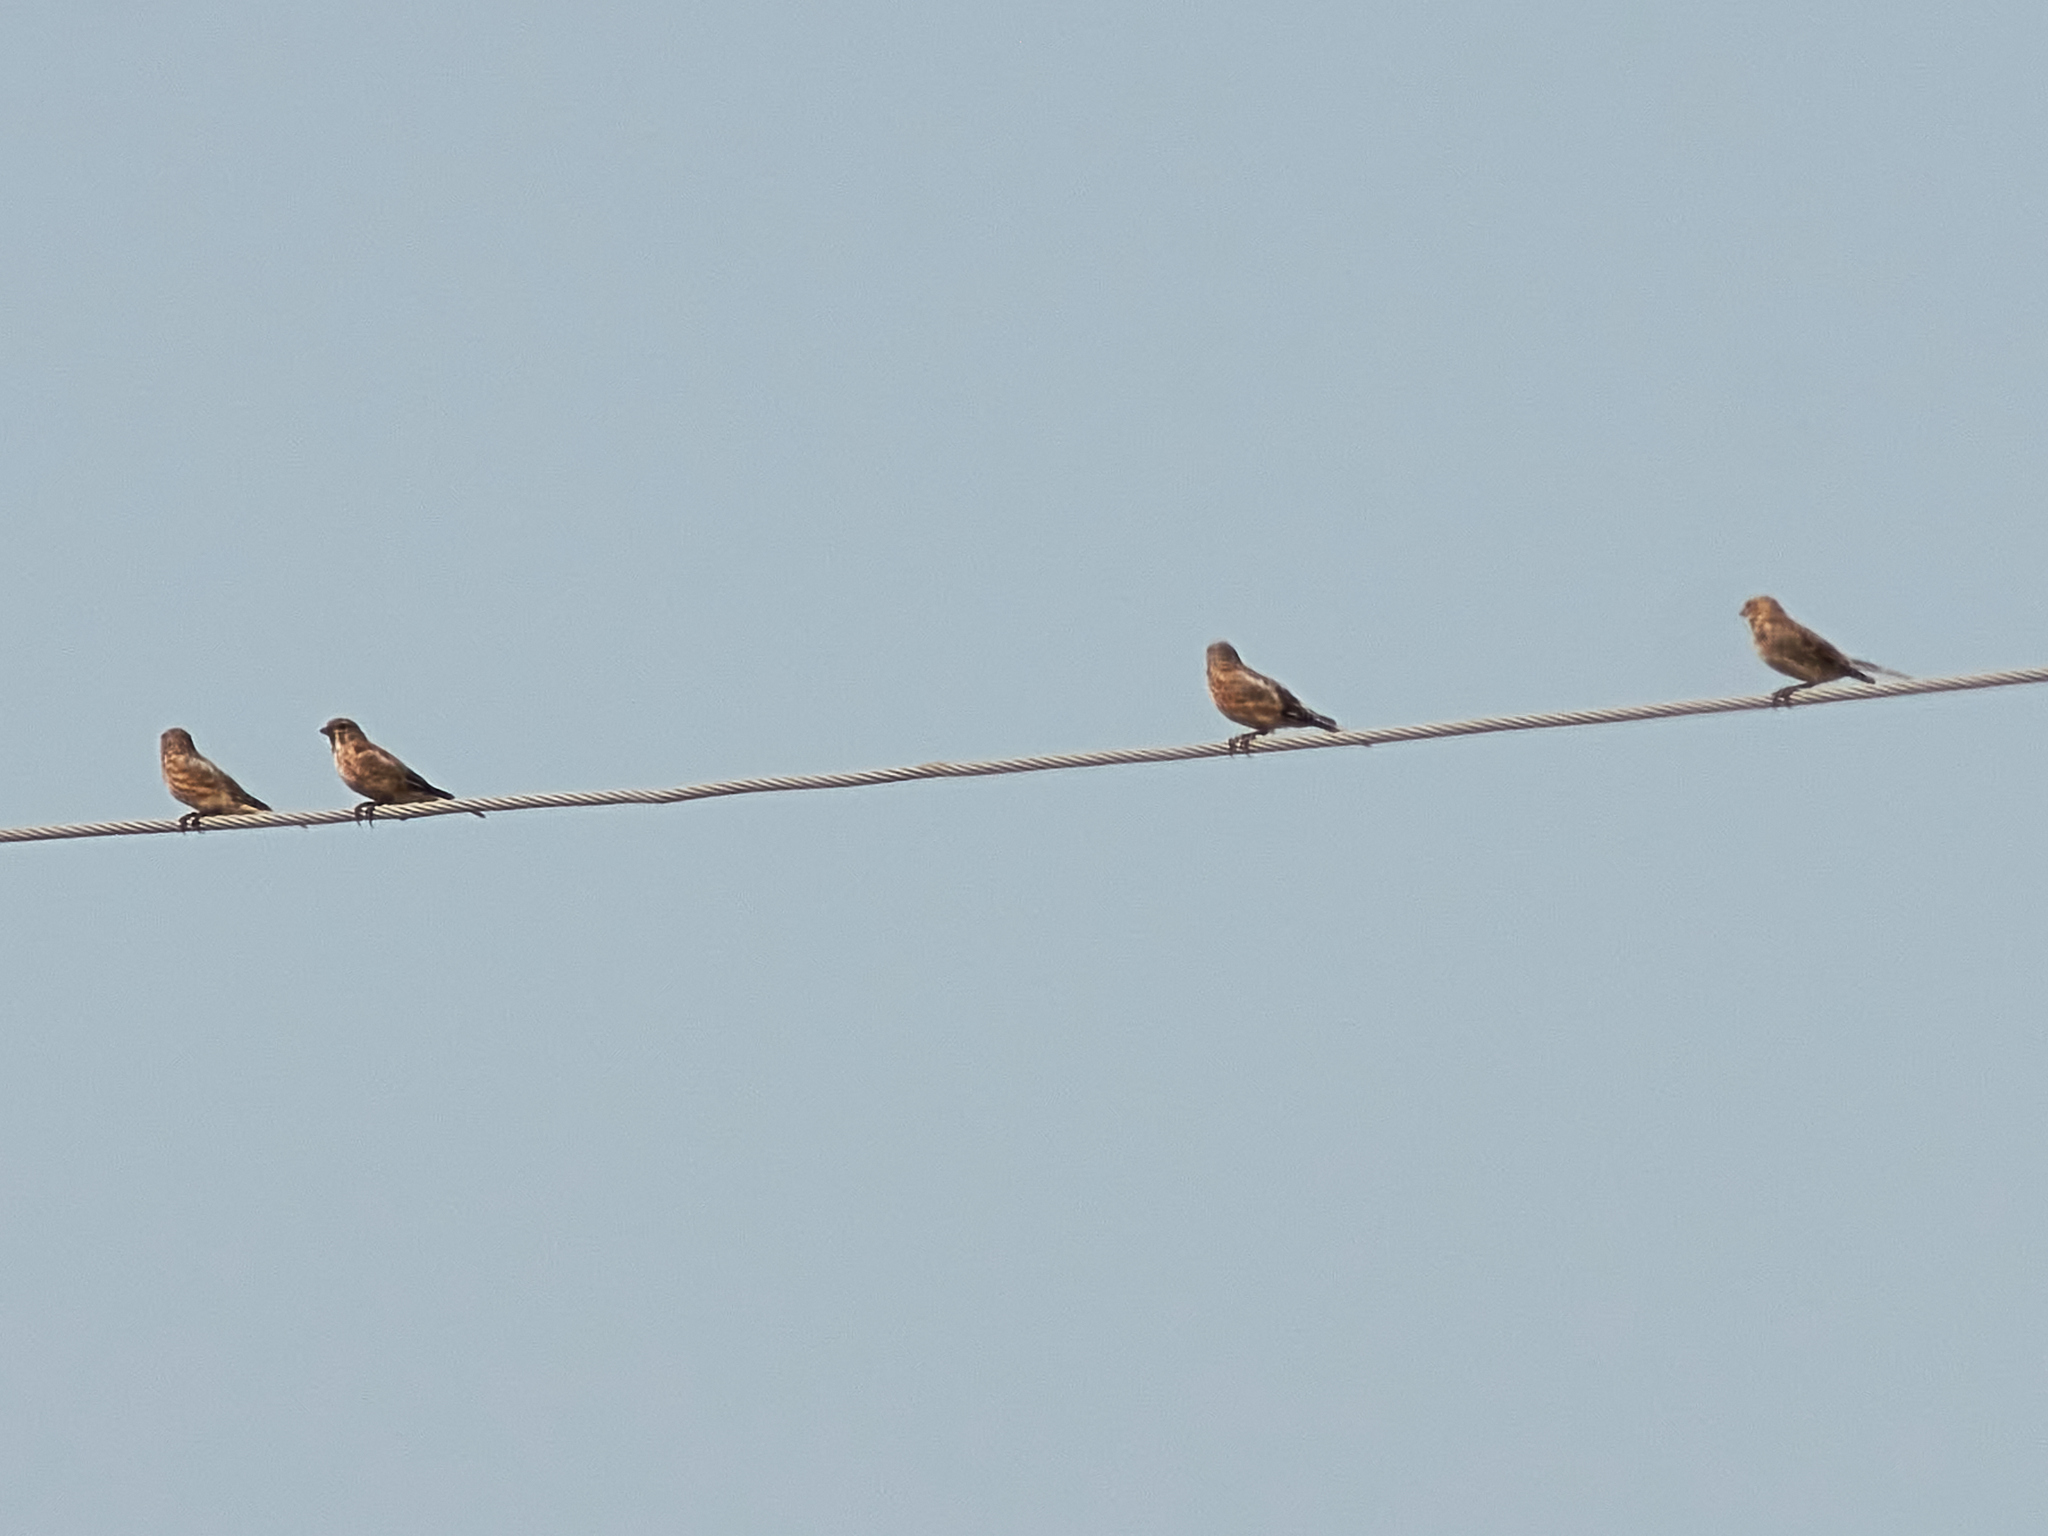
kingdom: Animalia
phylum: Chordata
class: Aves
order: Passeriformes
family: Fringillidae
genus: Linaria
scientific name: Linaria cannabina
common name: Common linnet
